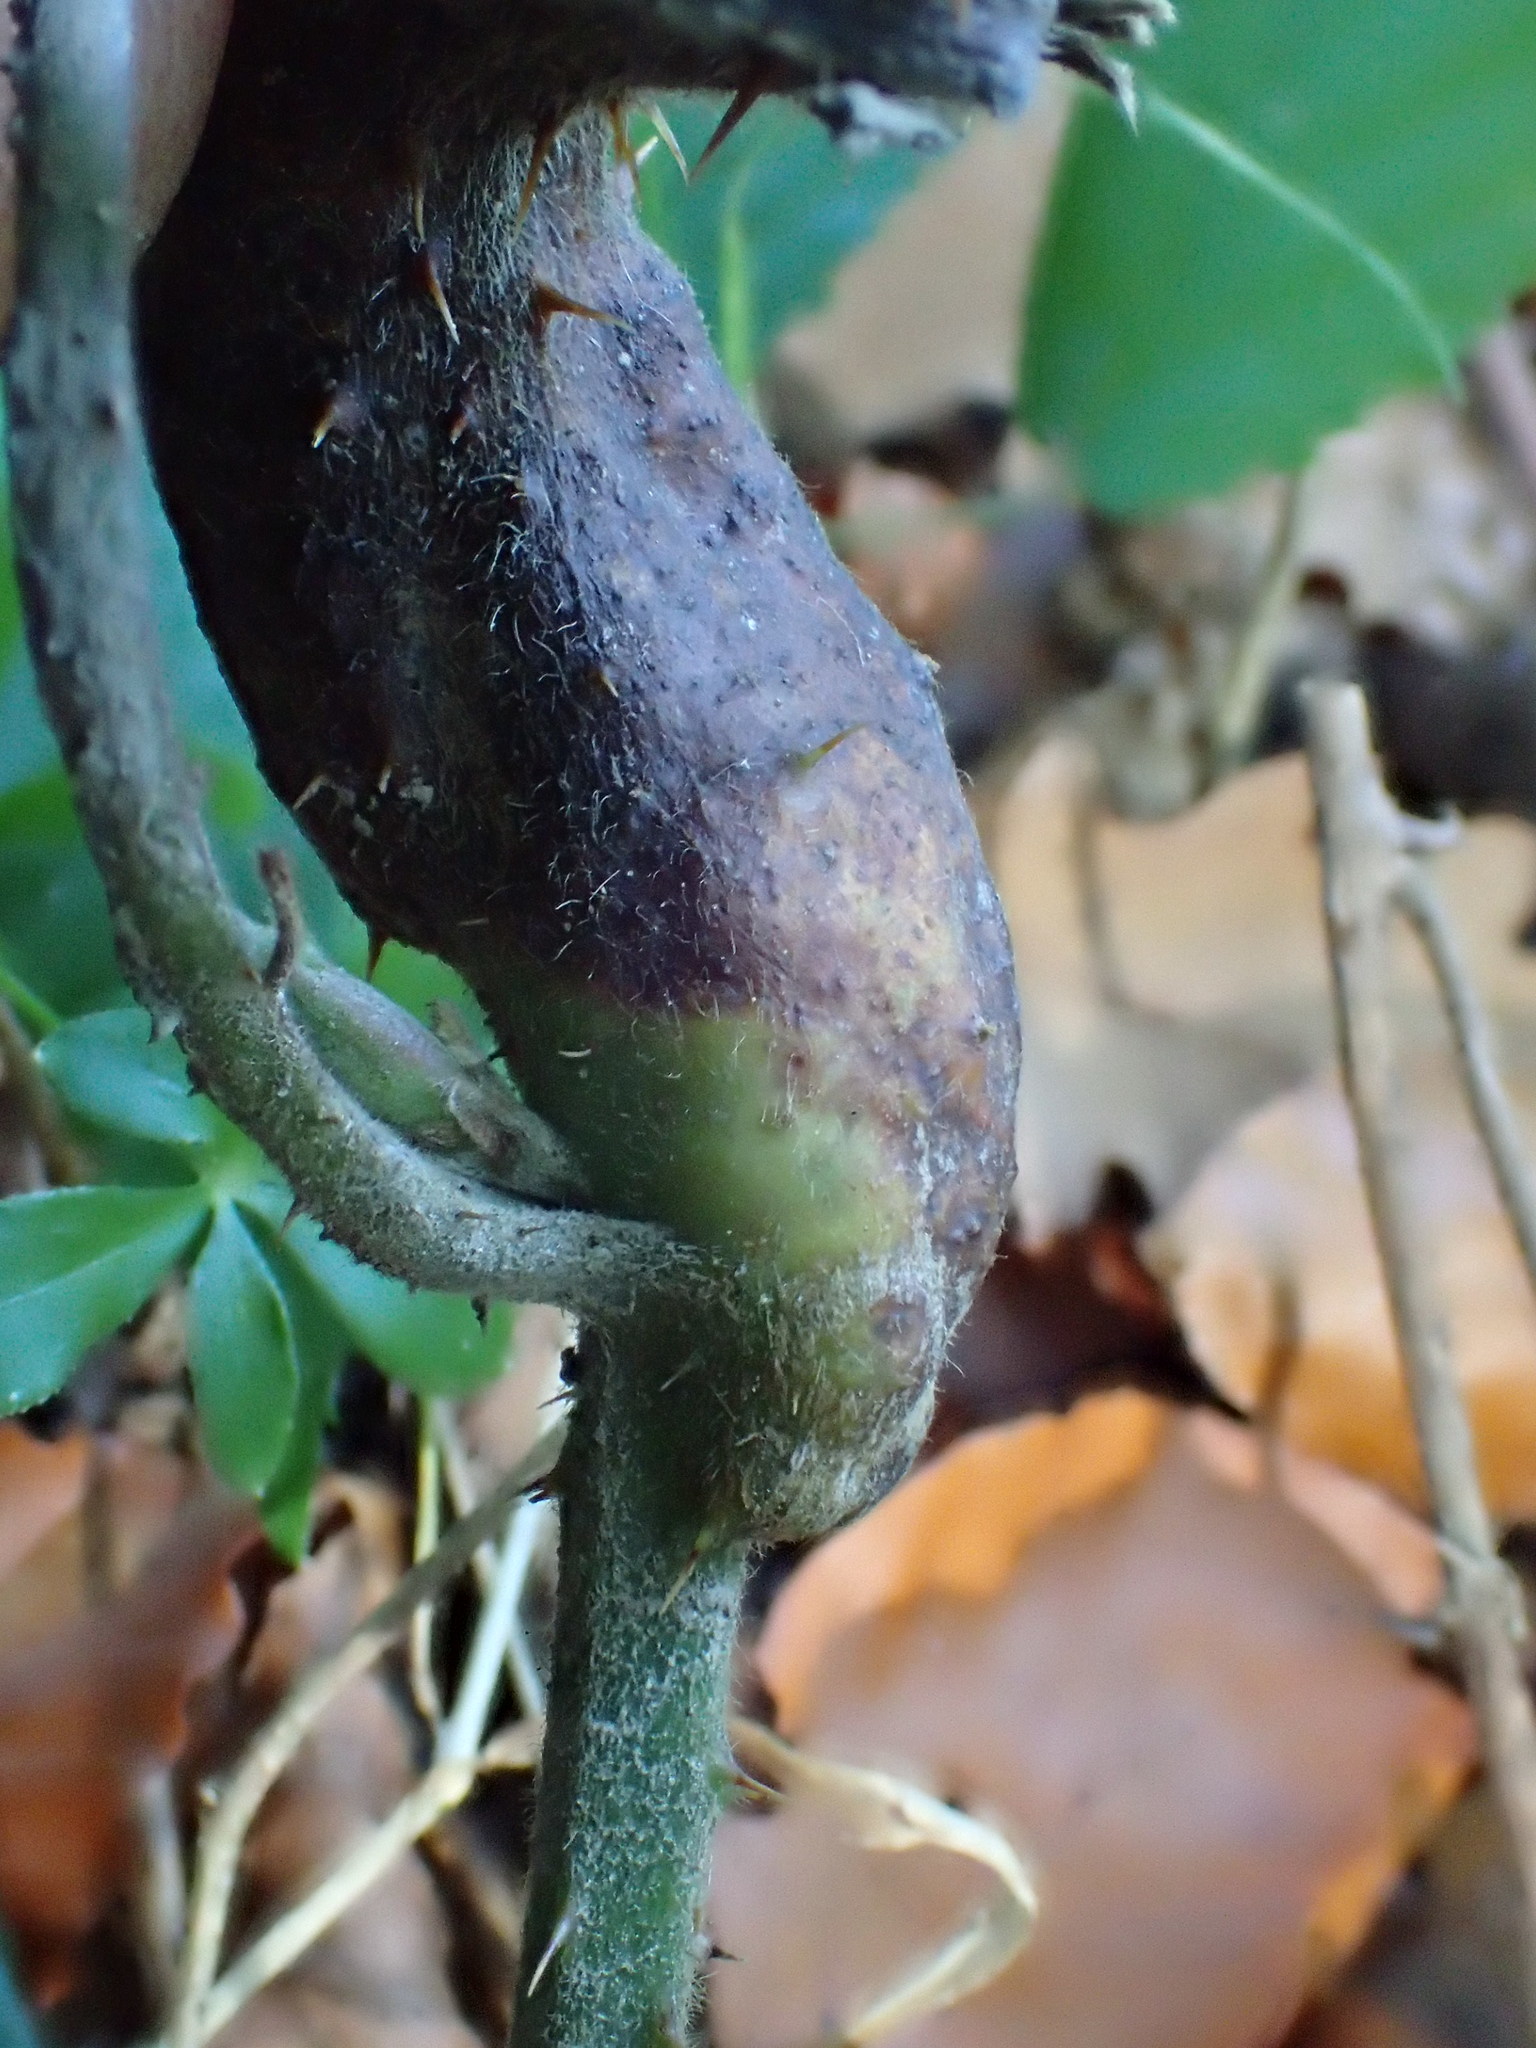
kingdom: Animalia
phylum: Arthropoda
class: Insecta
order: Hymenoptera
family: Cynipidae
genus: Diastrophus
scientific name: Diastrophus rubi
